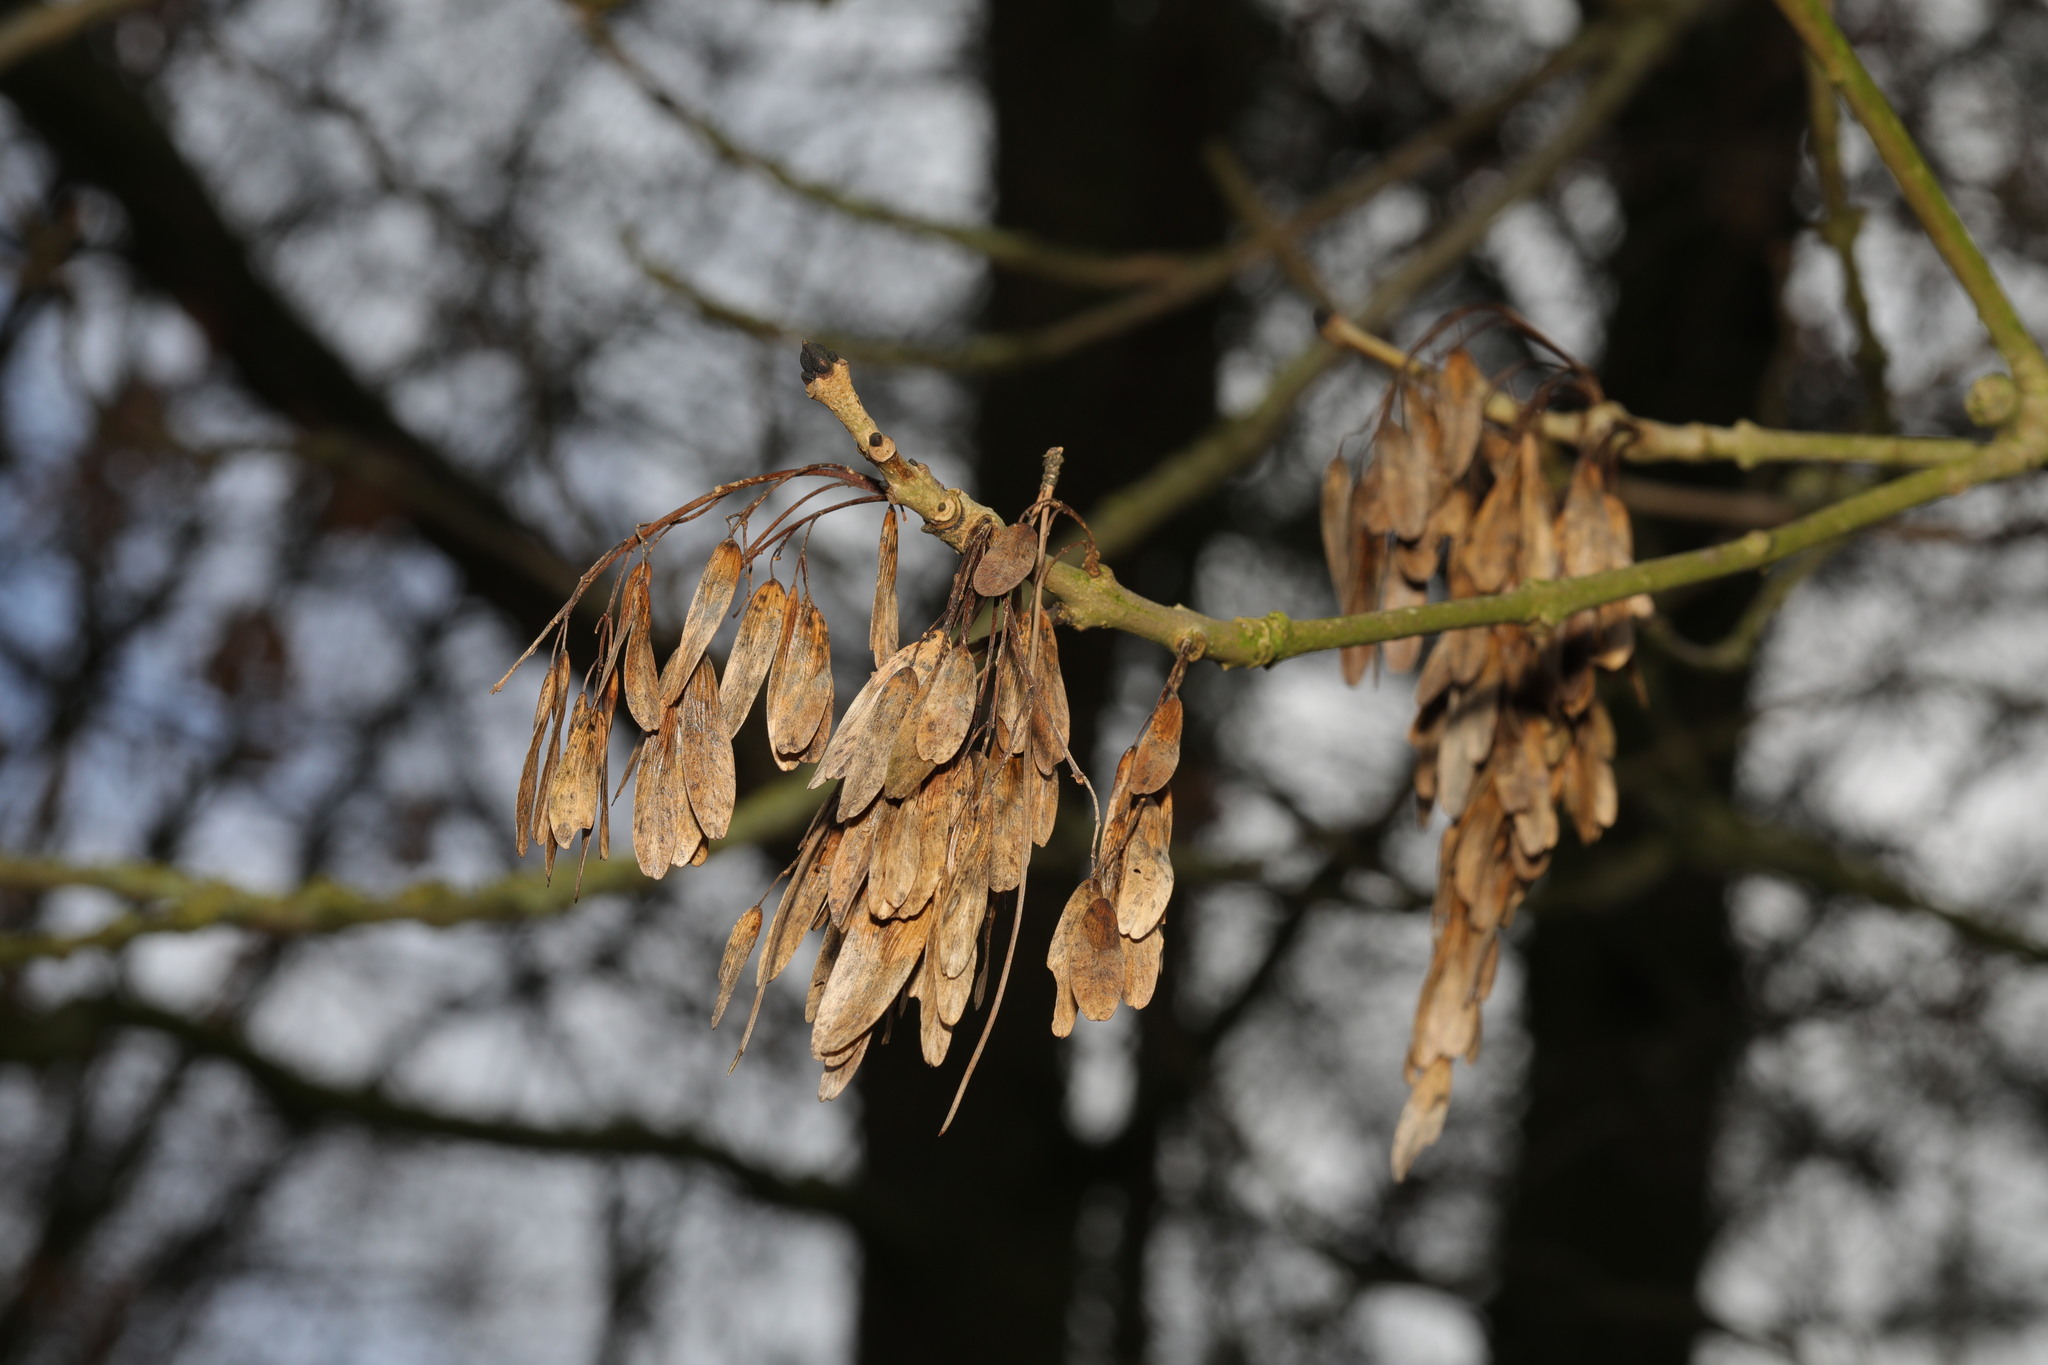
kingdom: Plantae
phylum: Tracheophyta
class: Magnoliopsida
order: Lamiales
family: Oleaceae
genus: Fraxinus
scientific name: Fraxinus excelsior
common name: European ash
